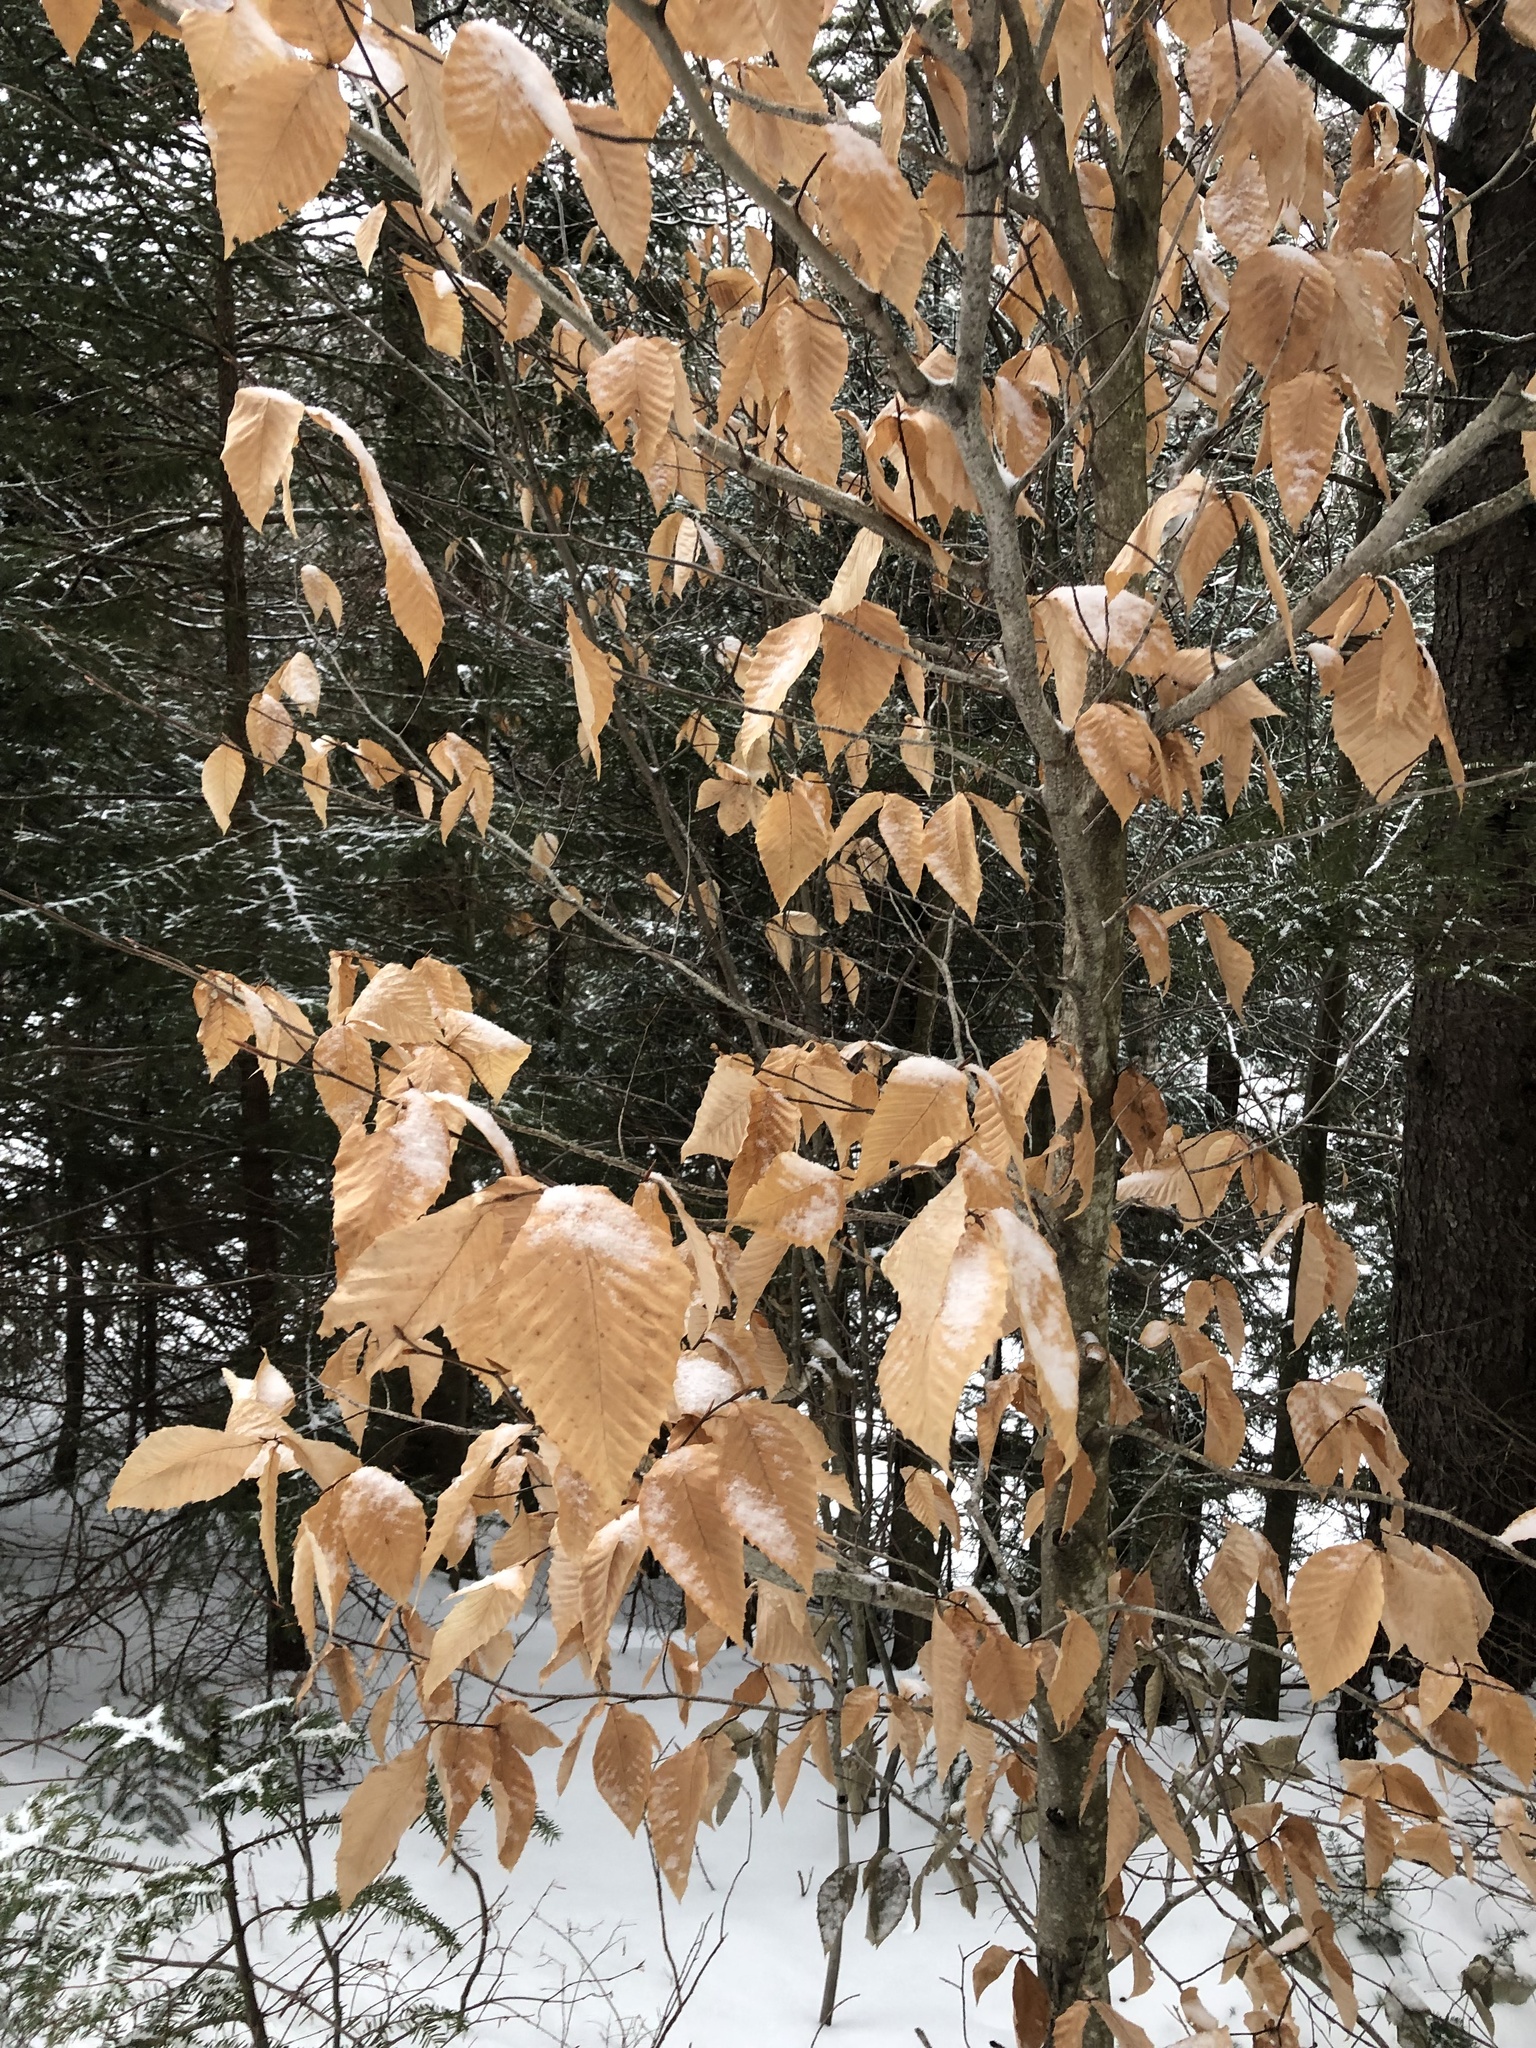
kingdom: Plantae
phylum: Tracheophyta
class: Magnoliopsida
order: Fagales
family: Fagaceae
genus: Fagus
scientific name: Fagus grandifolia
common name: American beech
